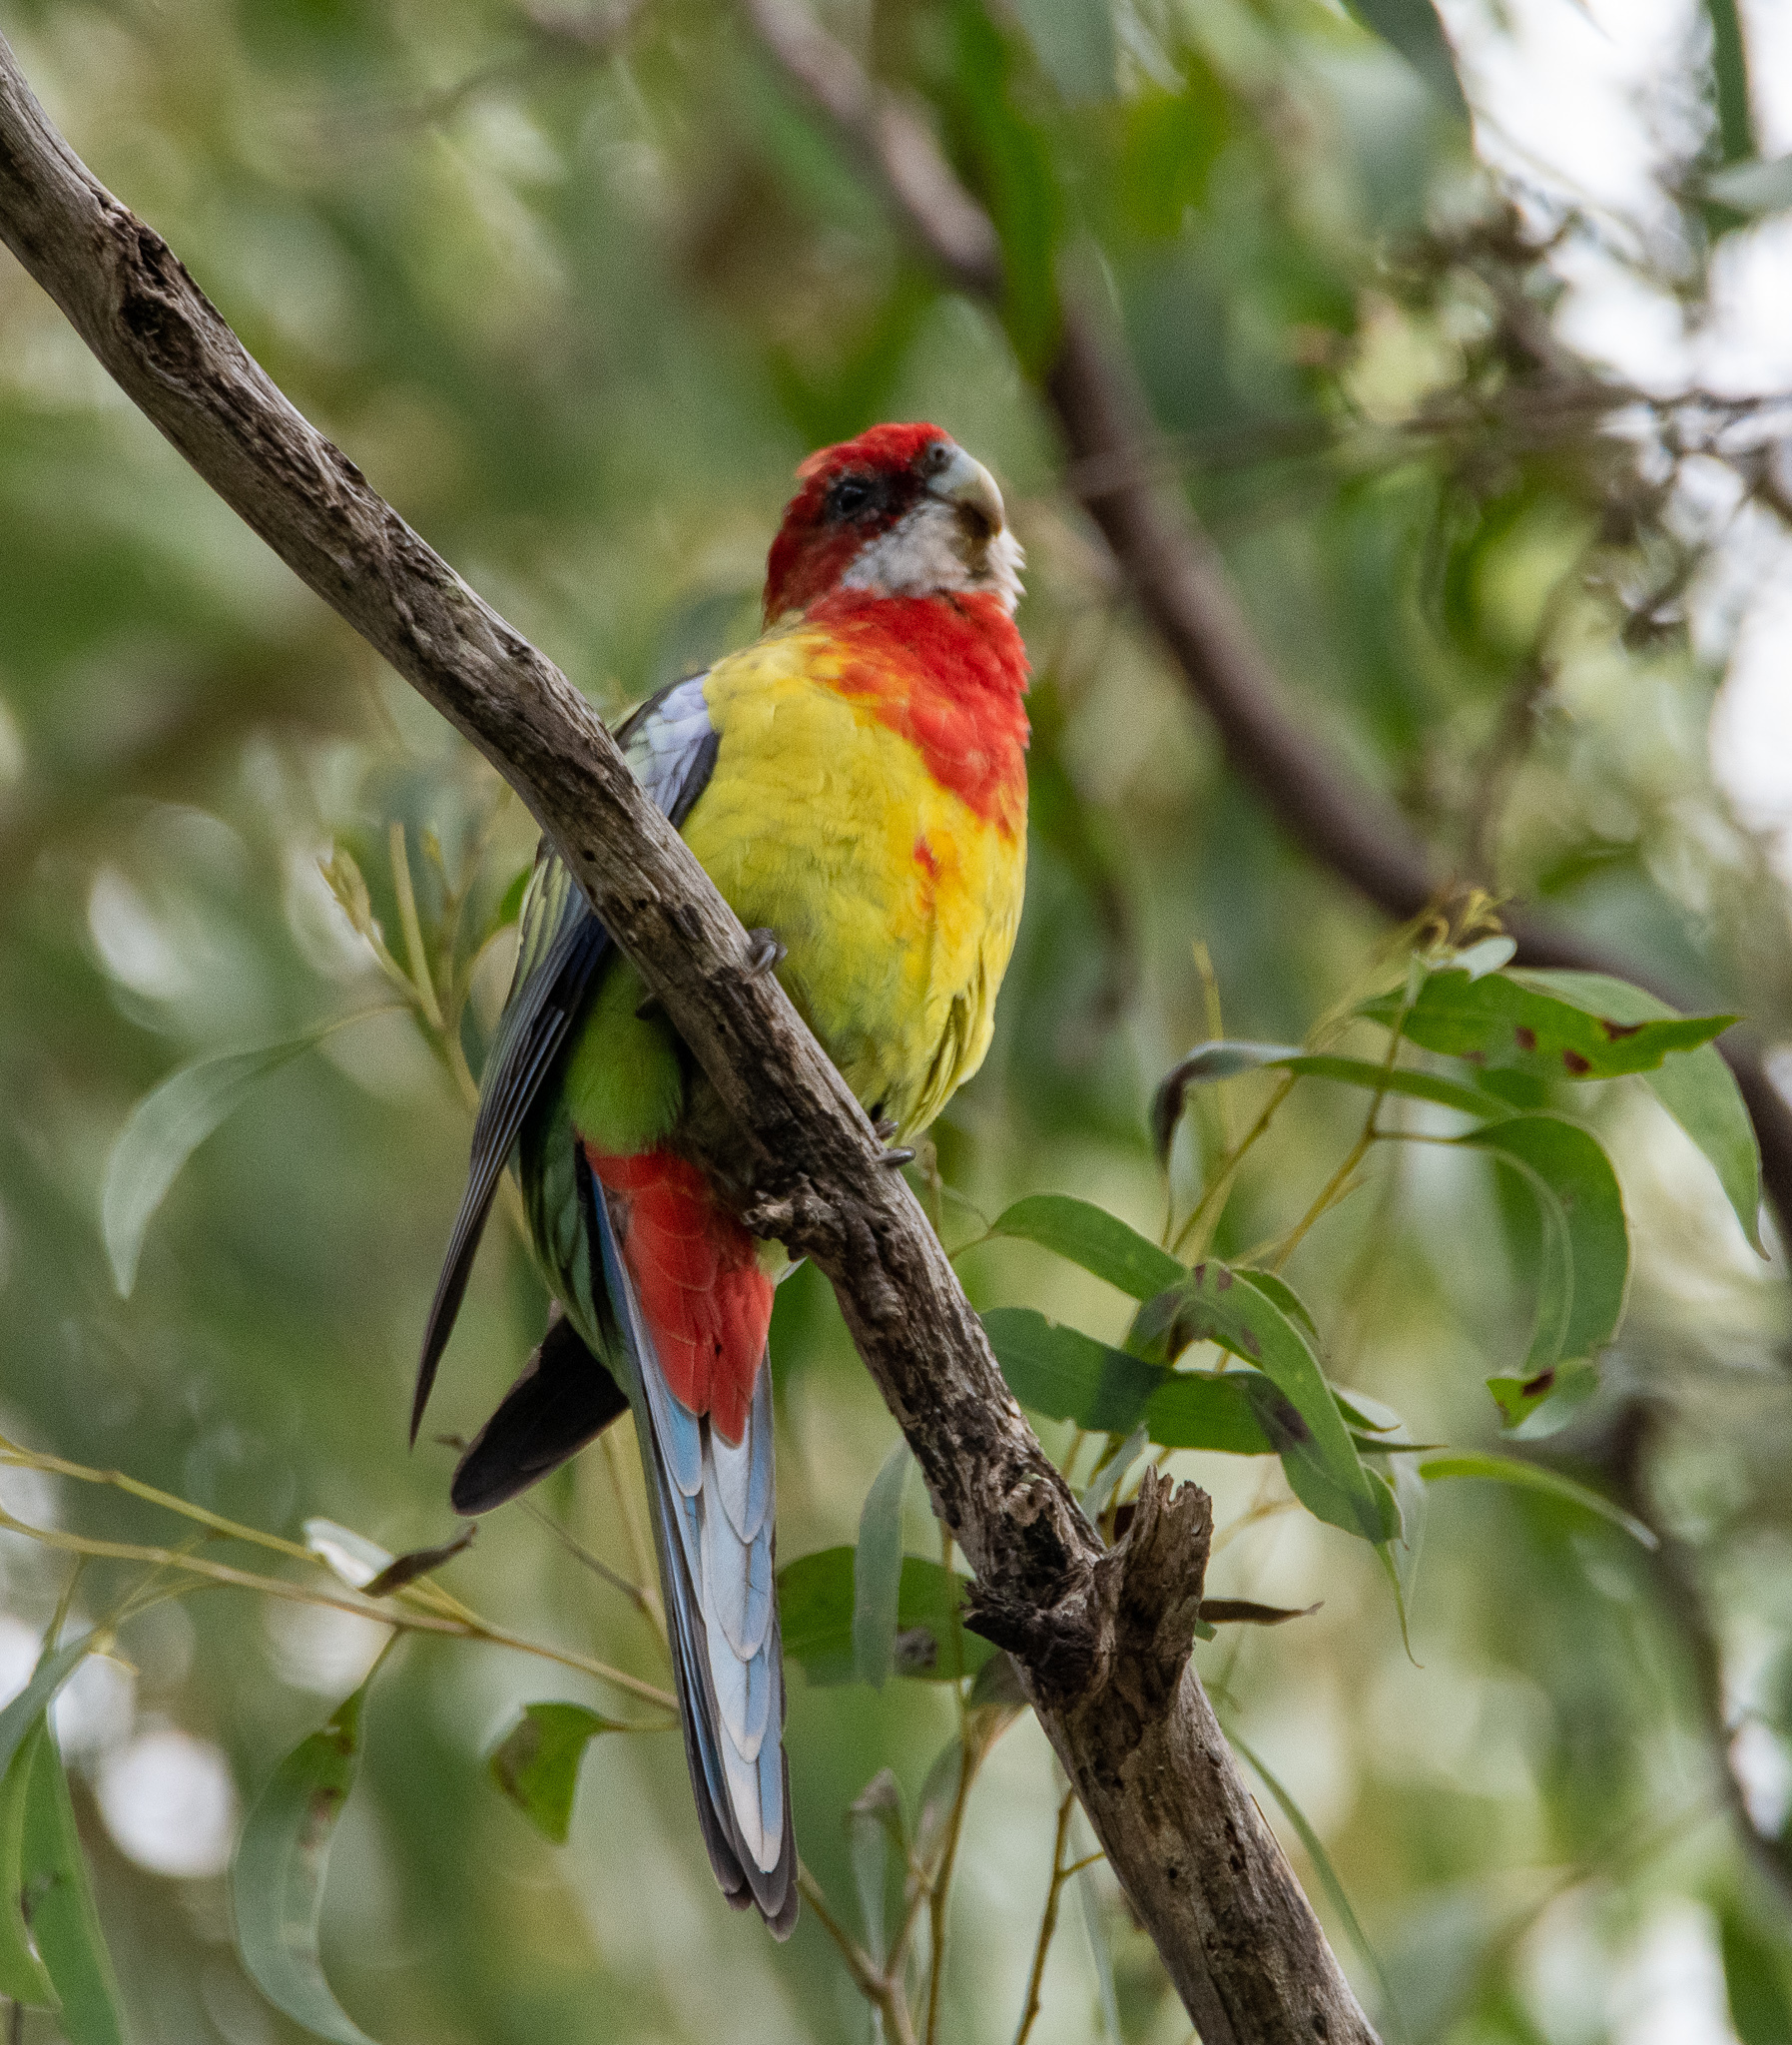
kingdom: Animalia
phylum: Chordata
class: Aves
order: Psittaciformes
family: Psittacidae
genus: Platycercus
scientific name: Platycercus eximius
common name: Eastern rosella
